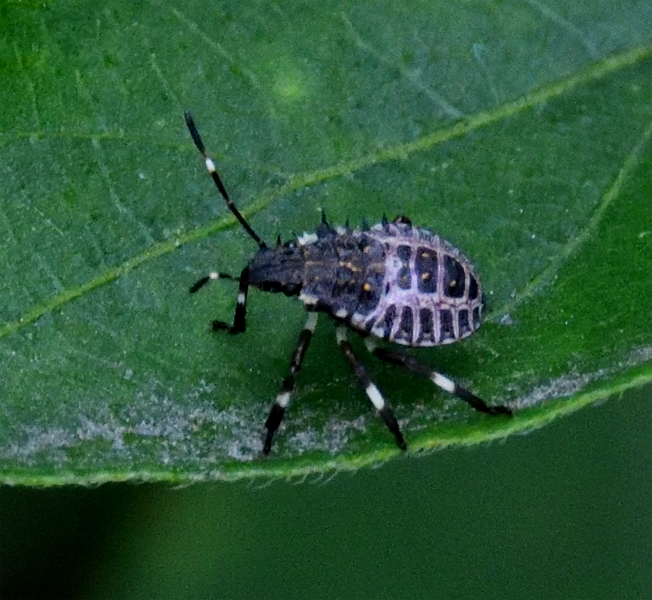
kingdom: Animalia
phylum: Arthropoda
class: Insecta
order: Hemiptera
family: Pentatomidae
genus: Halyomorpha
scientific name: Halyomorpha halys
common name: Brown marmorated stink bug
